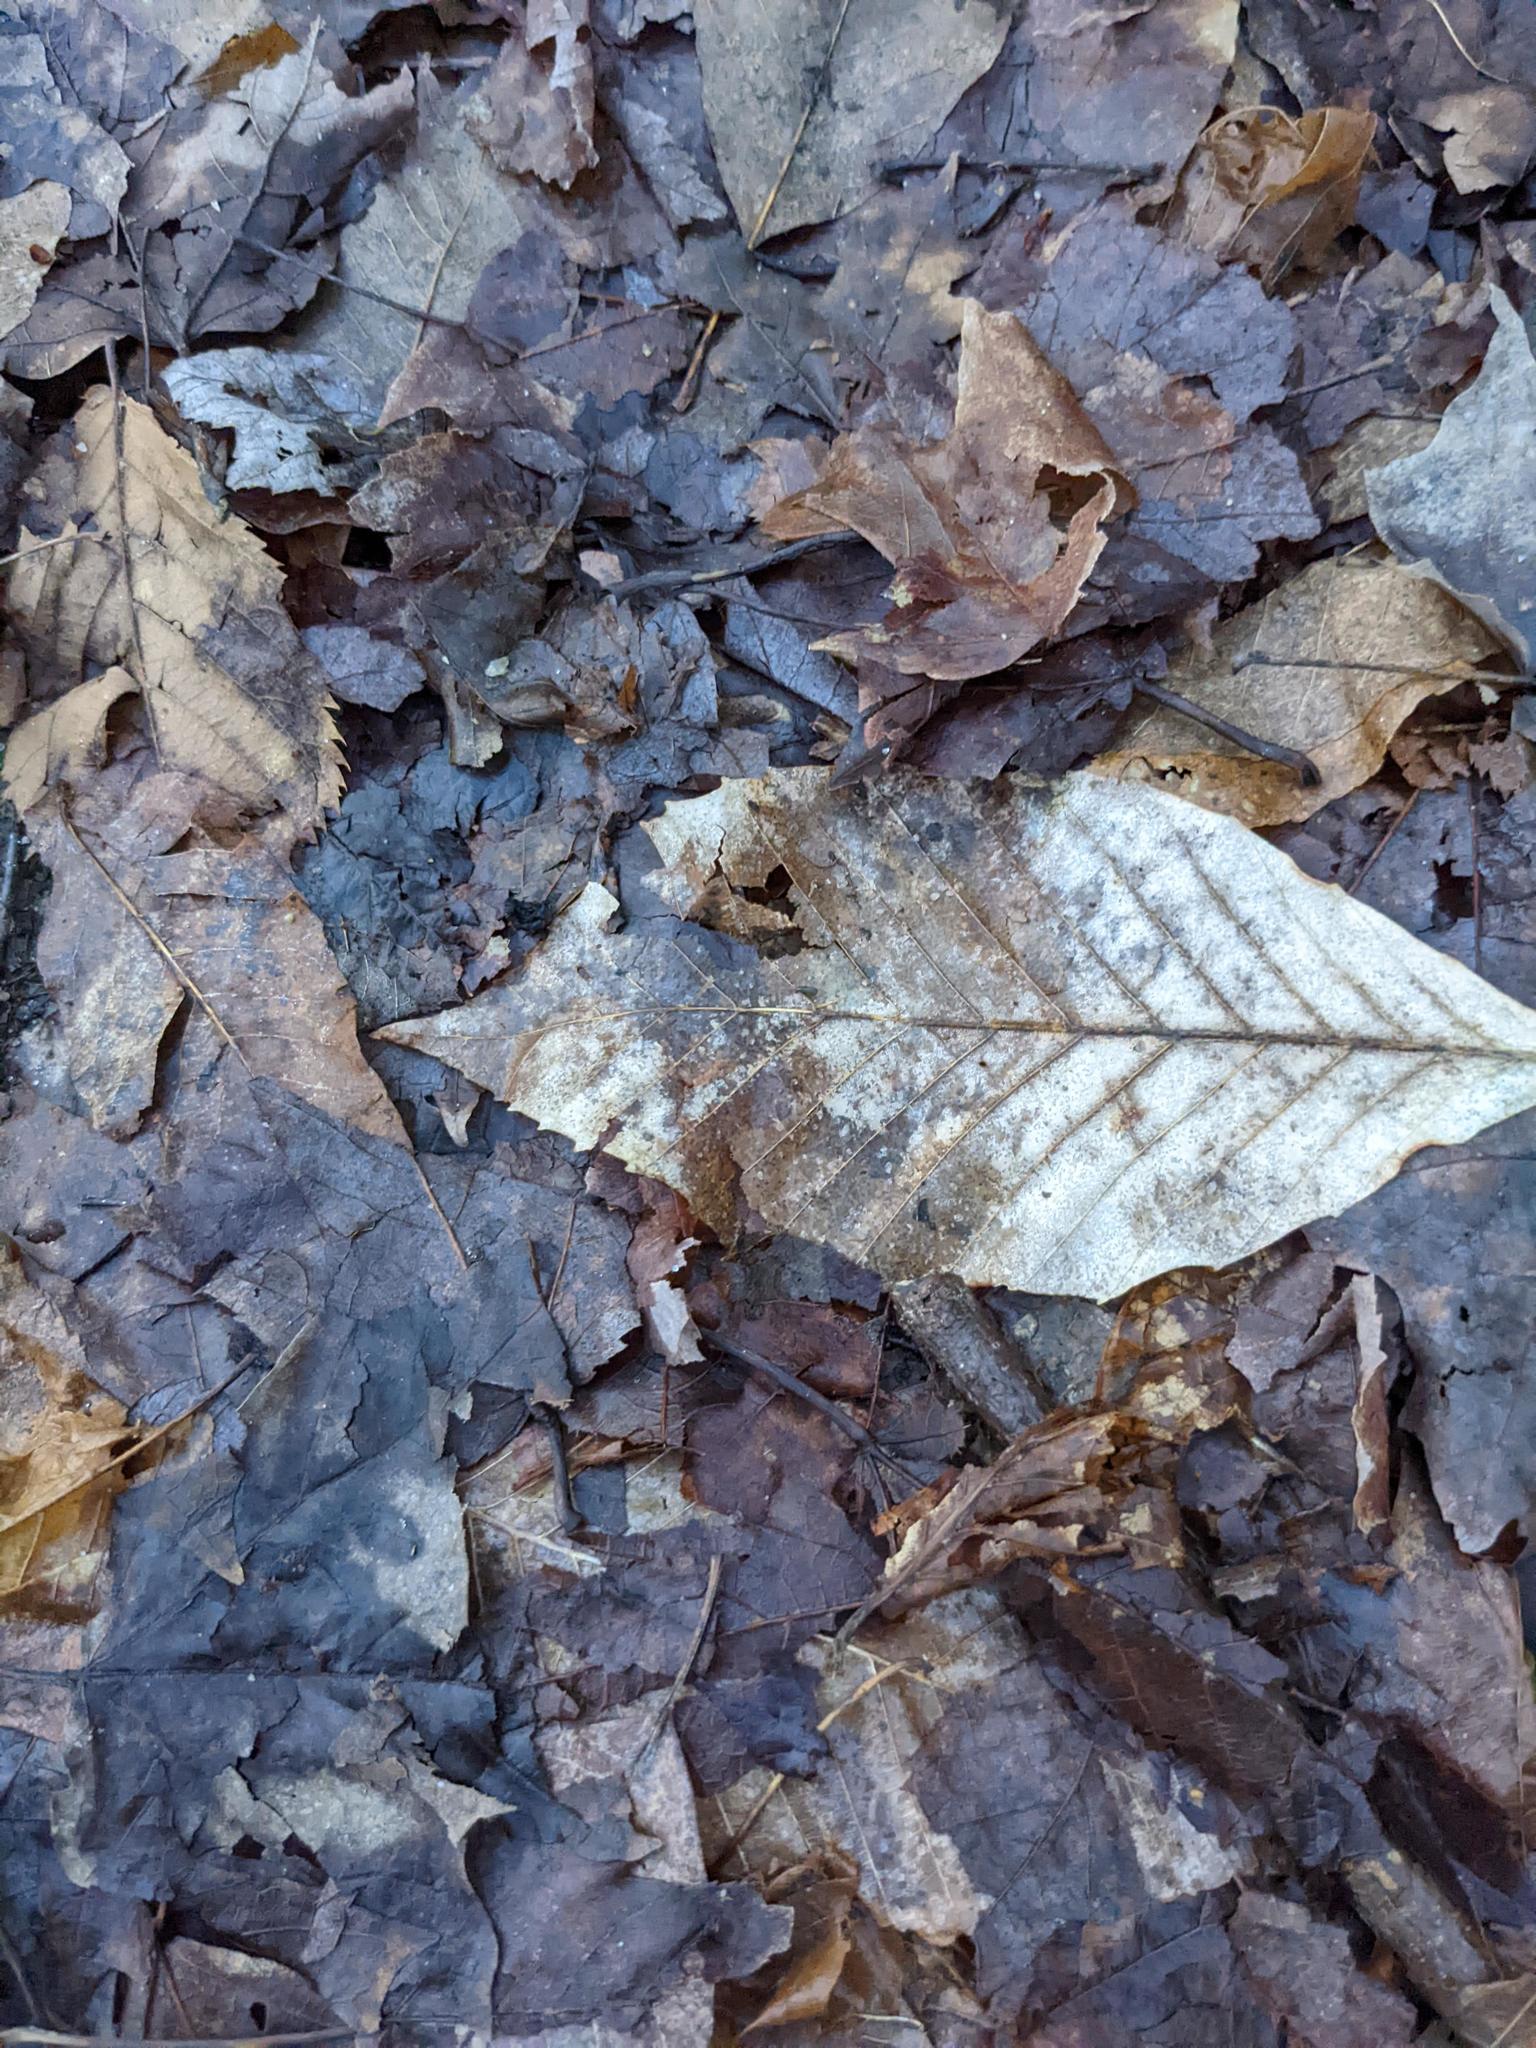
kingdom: Plantae
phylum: Tracheophyta
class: Magnoliopsida
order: Fagales
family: Fagaceae
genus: Fagus
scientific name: Fagus grandifolia
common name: American beech
